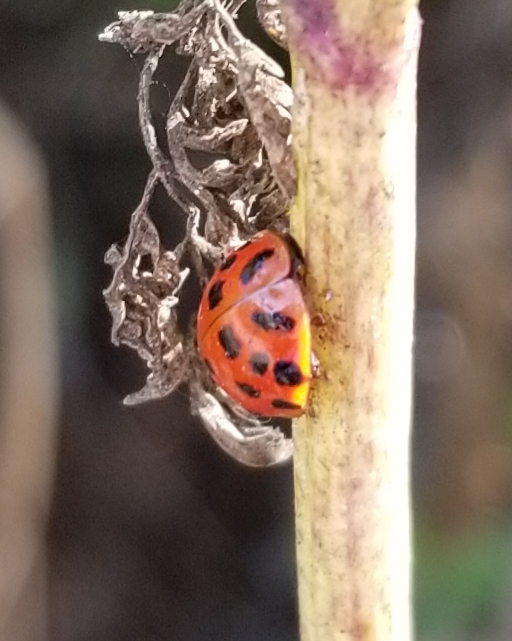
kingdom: Animalia
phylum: Arthropoda
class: Insecta
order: Coleoptera
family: Coccinellidae
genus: Harmonia
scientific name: Harmonia axyridis
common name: Harlequin ladybird
